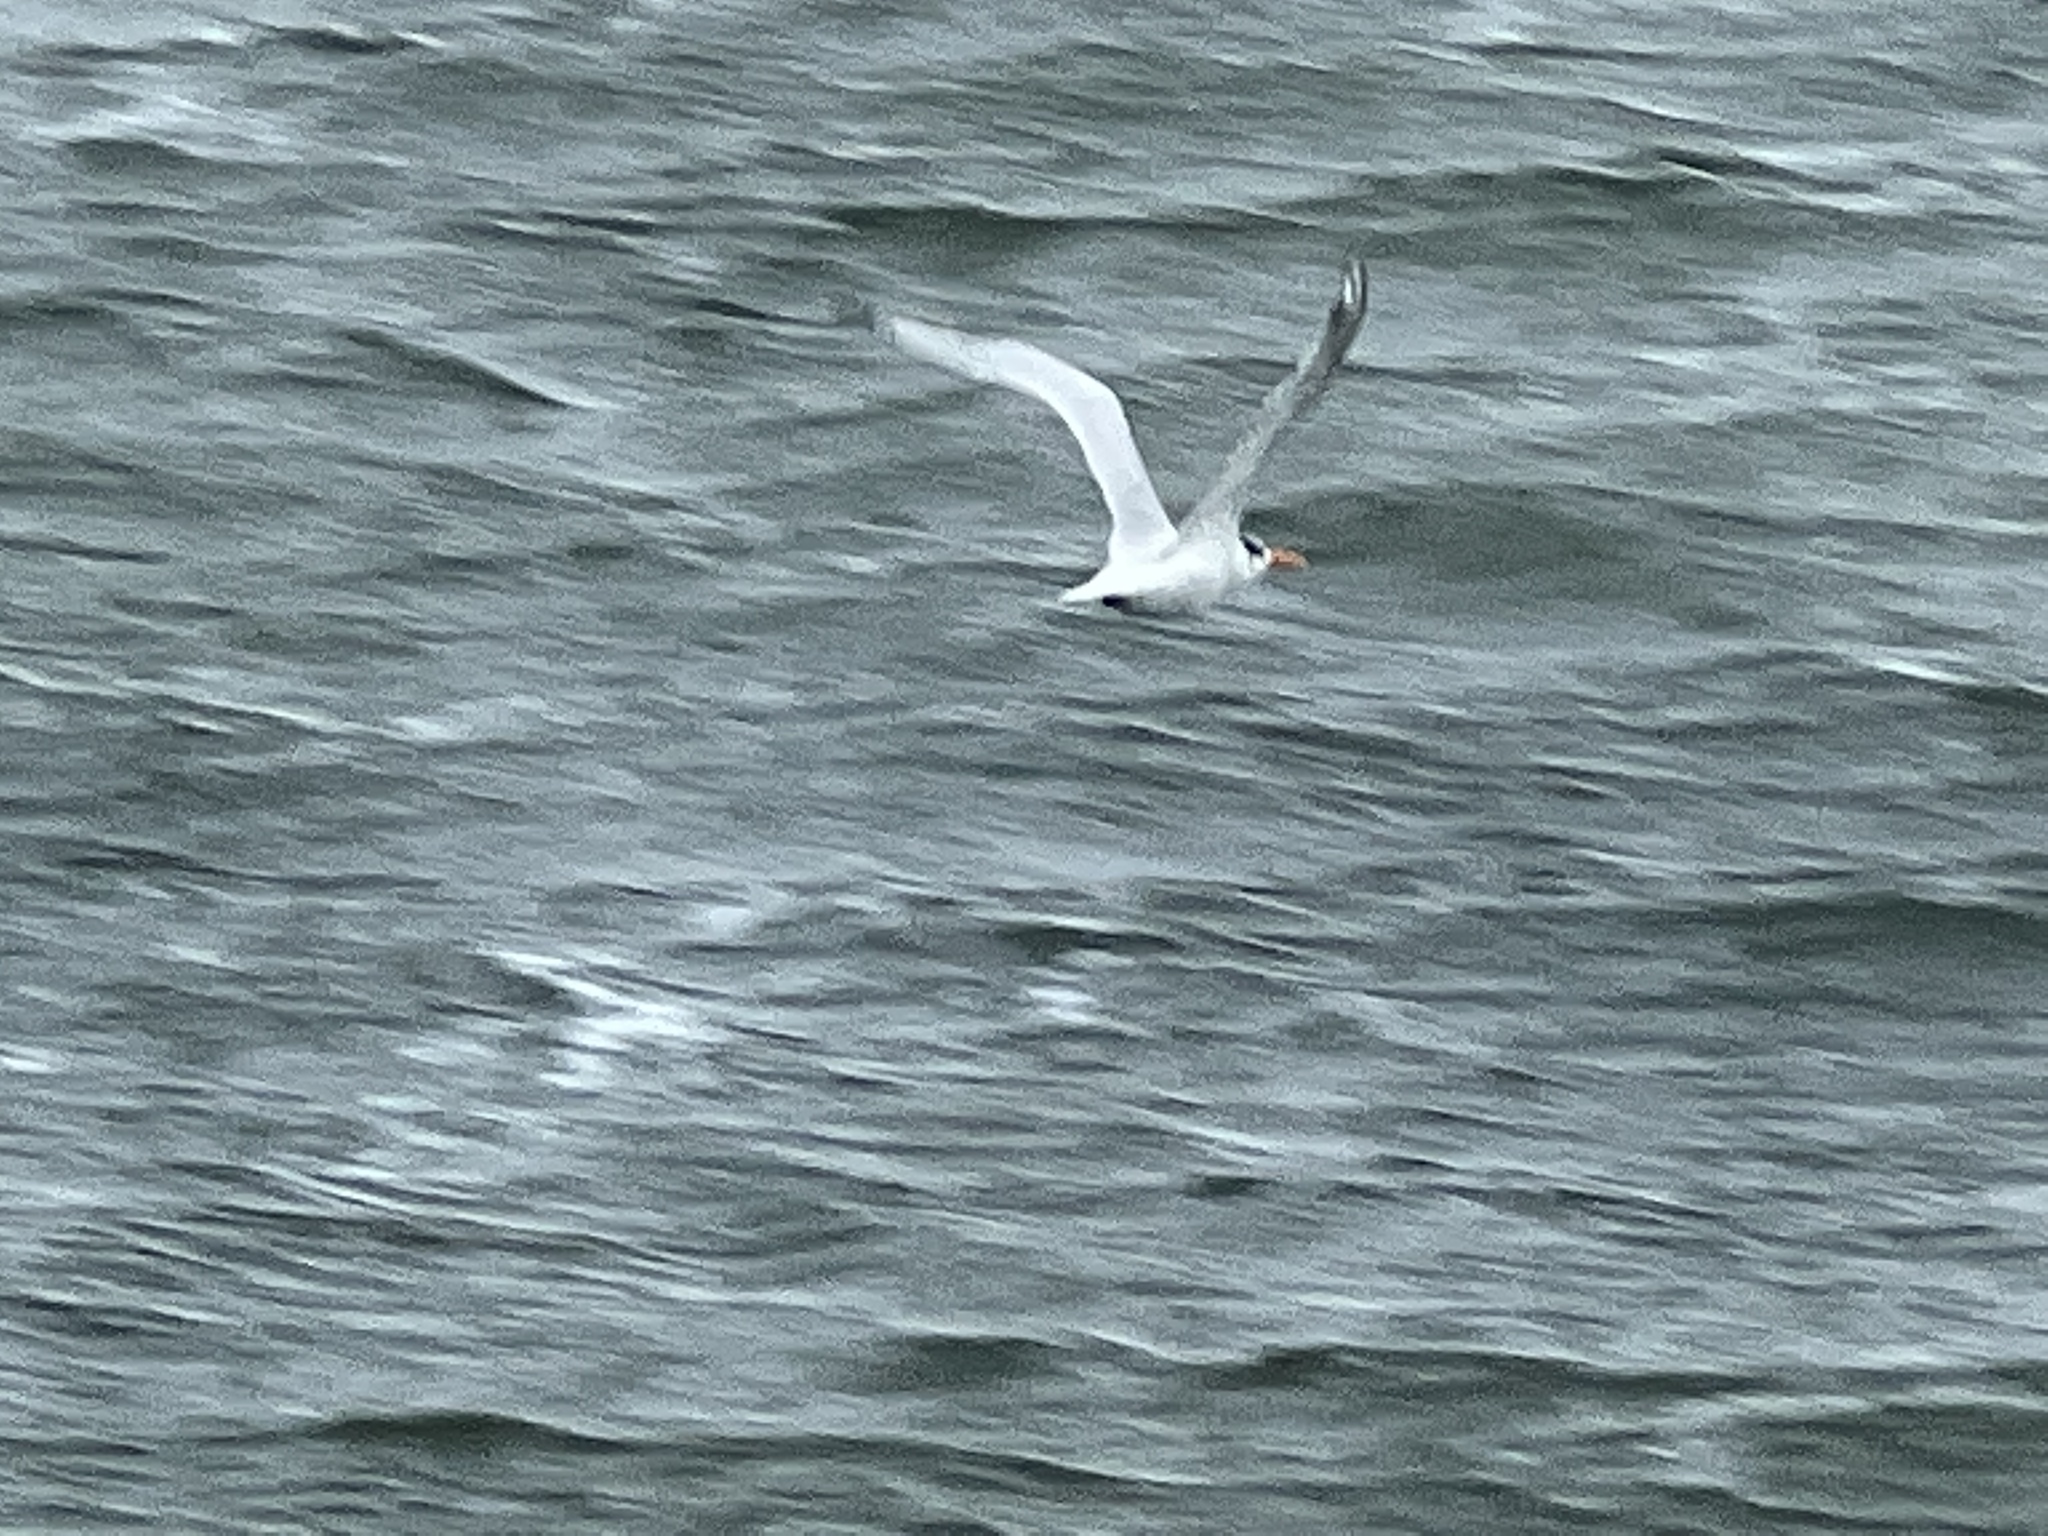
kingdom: Animalia
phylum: Chordata
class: Aves
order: Charadriiformes
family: Laridae
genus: Thalasseus
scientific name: Thalasseus maximus
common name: Royal tern
